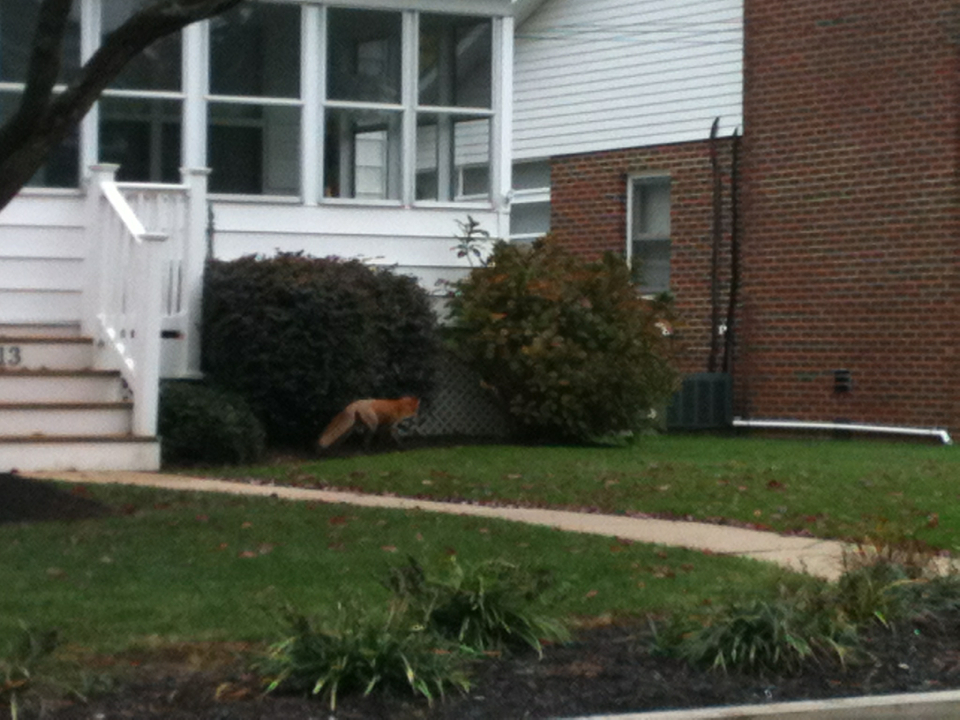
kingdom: Animalia
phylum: Chordata
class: Mammalia
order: Carnivora
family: Canidae
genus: Vulpes
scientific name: Vulpes vulpes
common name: Red fox
